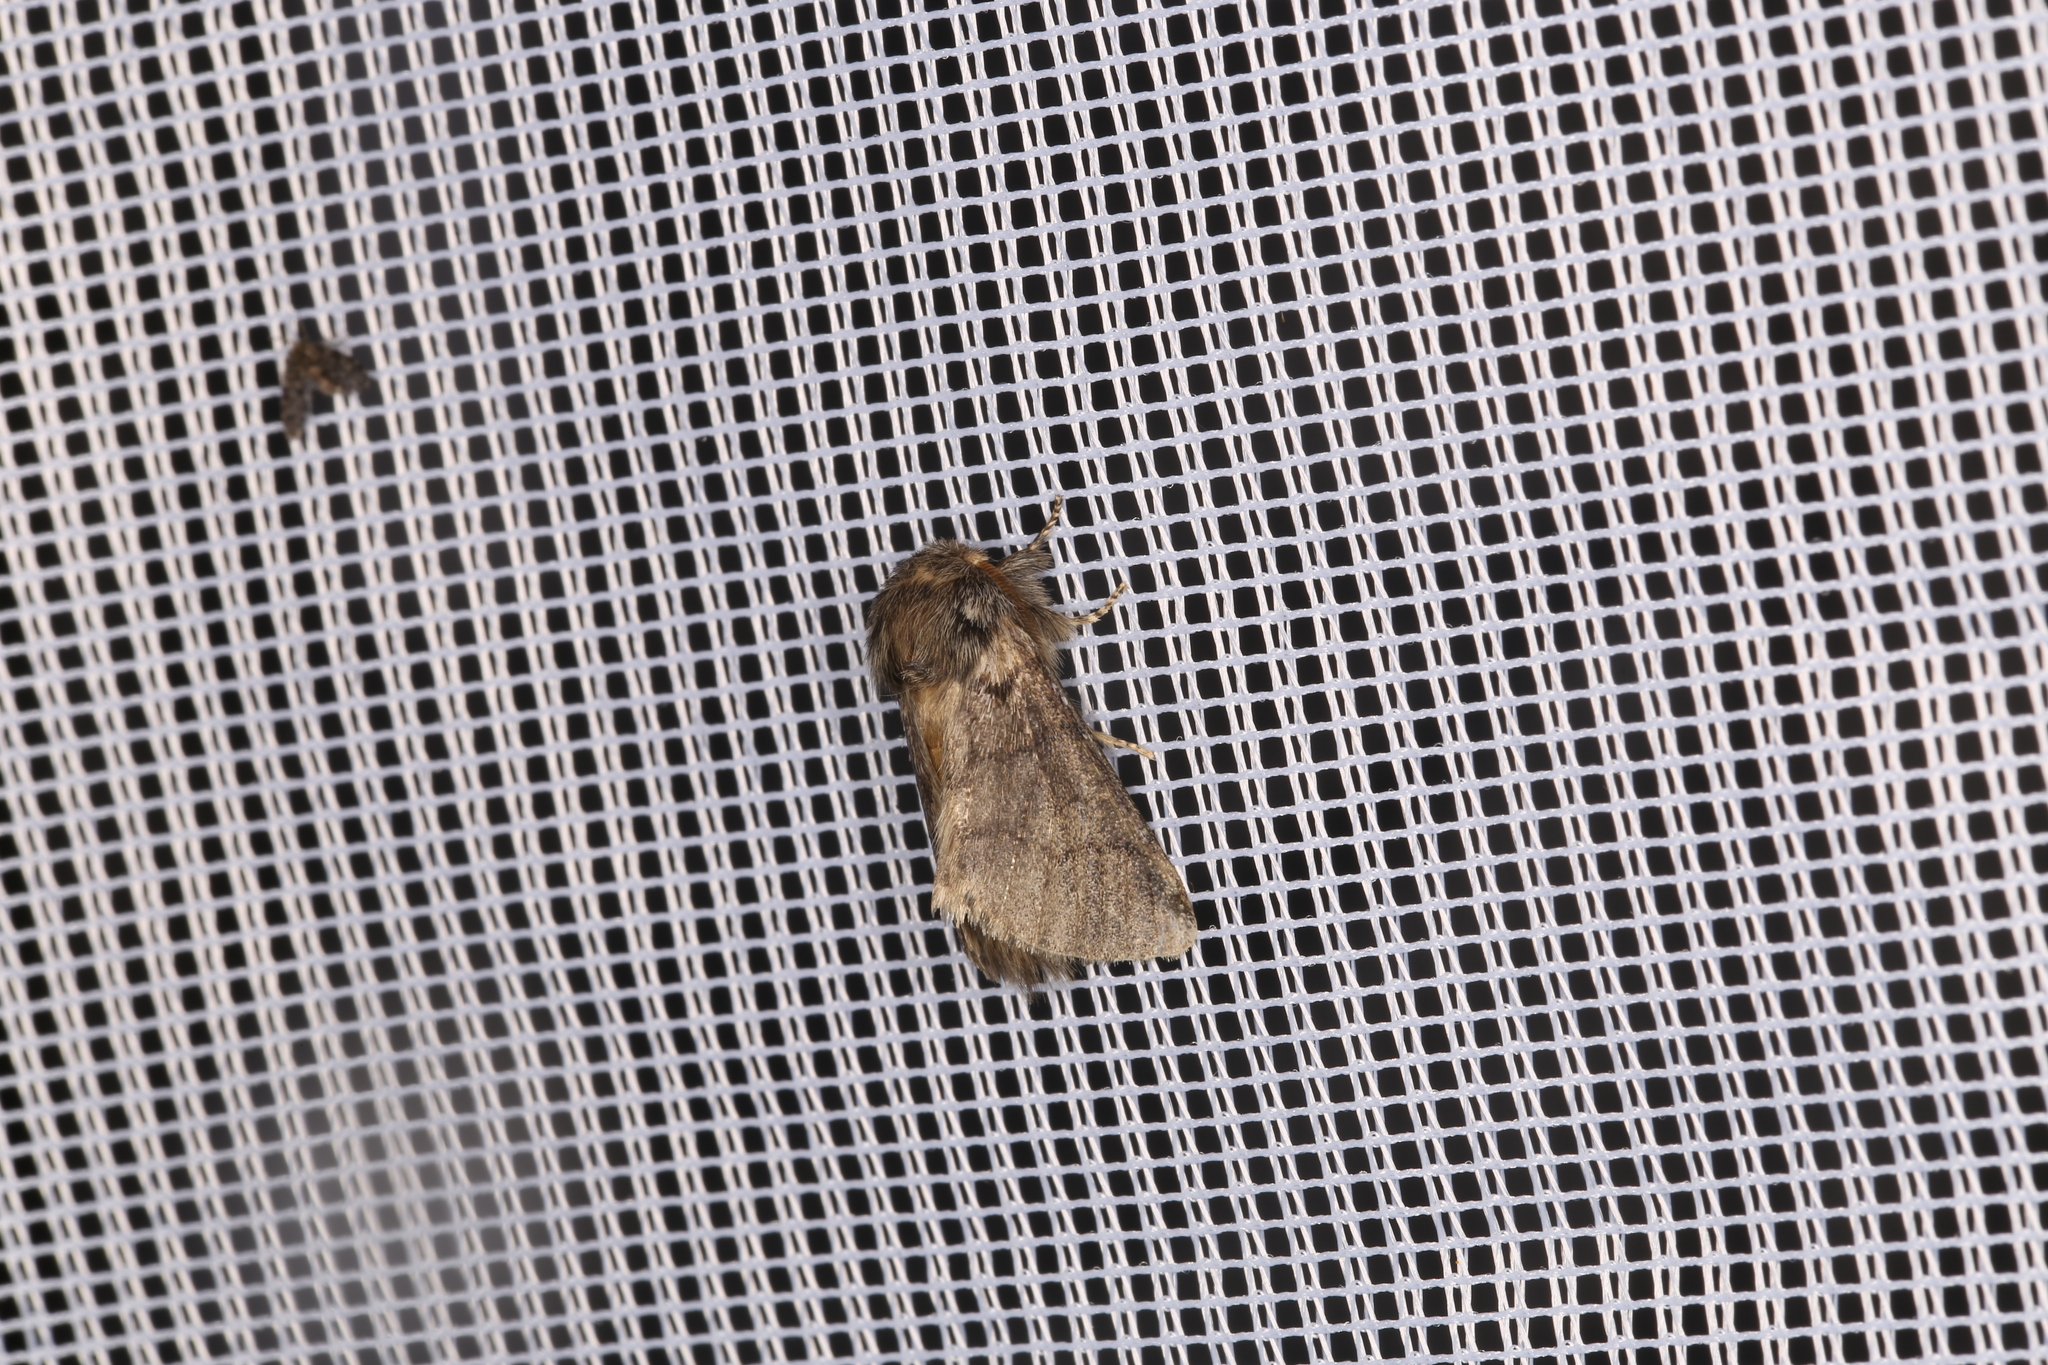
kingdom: Animalia
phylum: Arthropoda
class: Insecta
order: Lepidoptera
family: Notodontidae
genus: Thaumetopoea
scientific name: Thaumetopoea processionea
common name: Oak processionea
